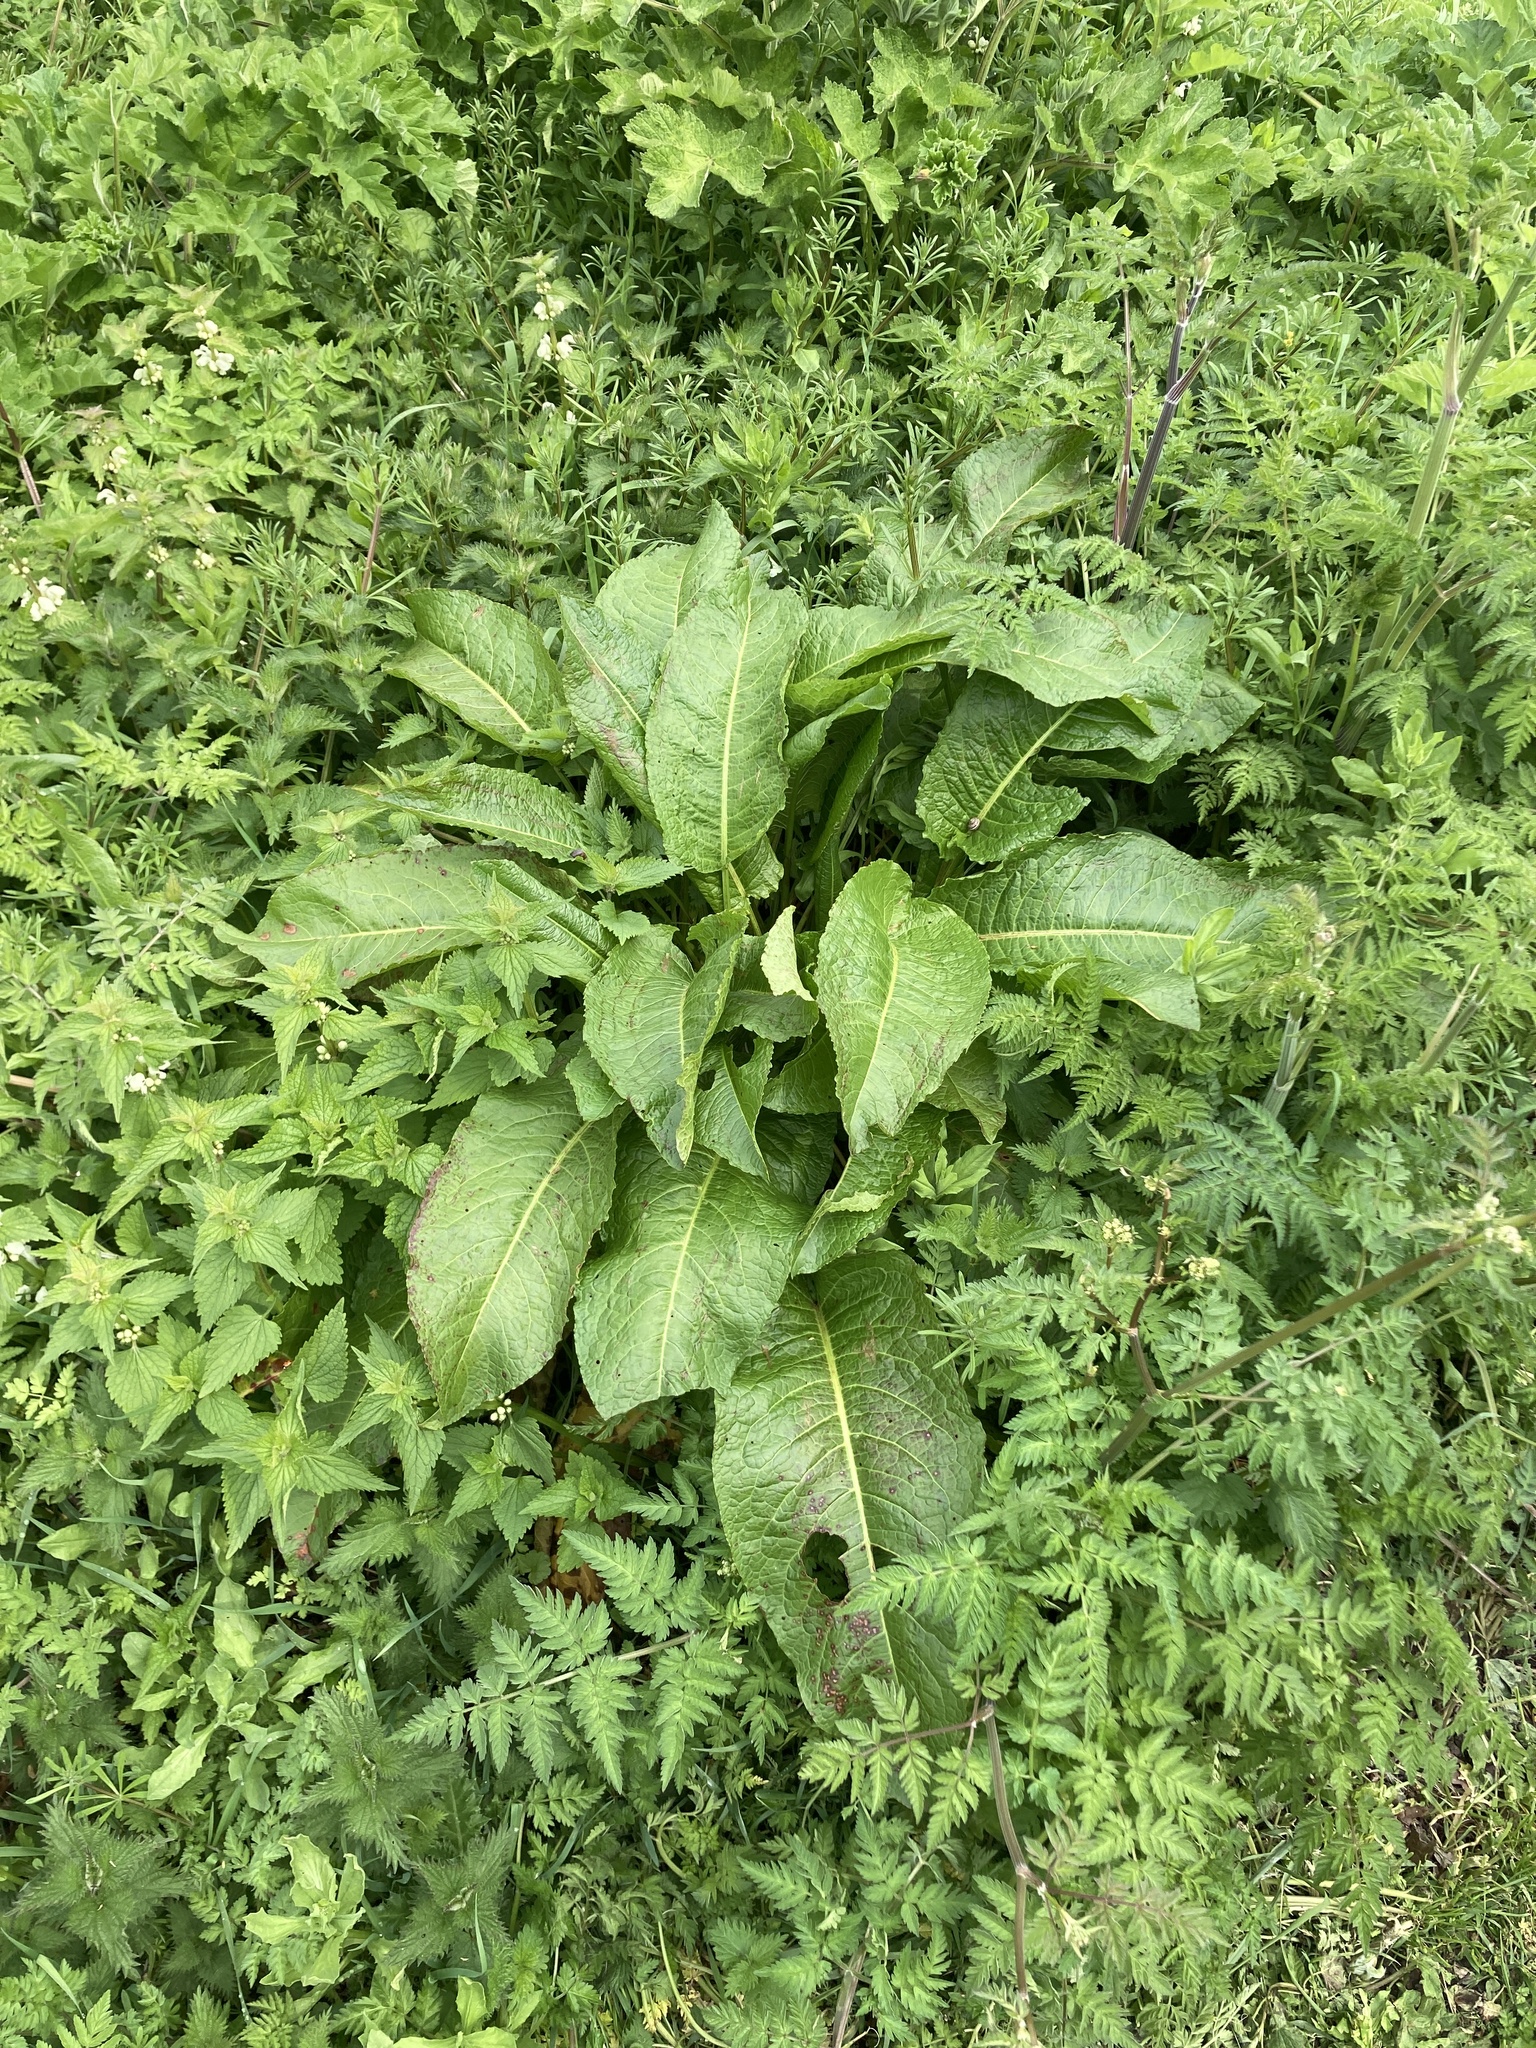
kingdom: Plantae
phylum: Tracheophyta
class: Magnoliopsida
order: Caryophyllales
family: Polygonaceae
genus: Rumex
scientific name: Rumex obtusifolius
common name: Bitter dock
